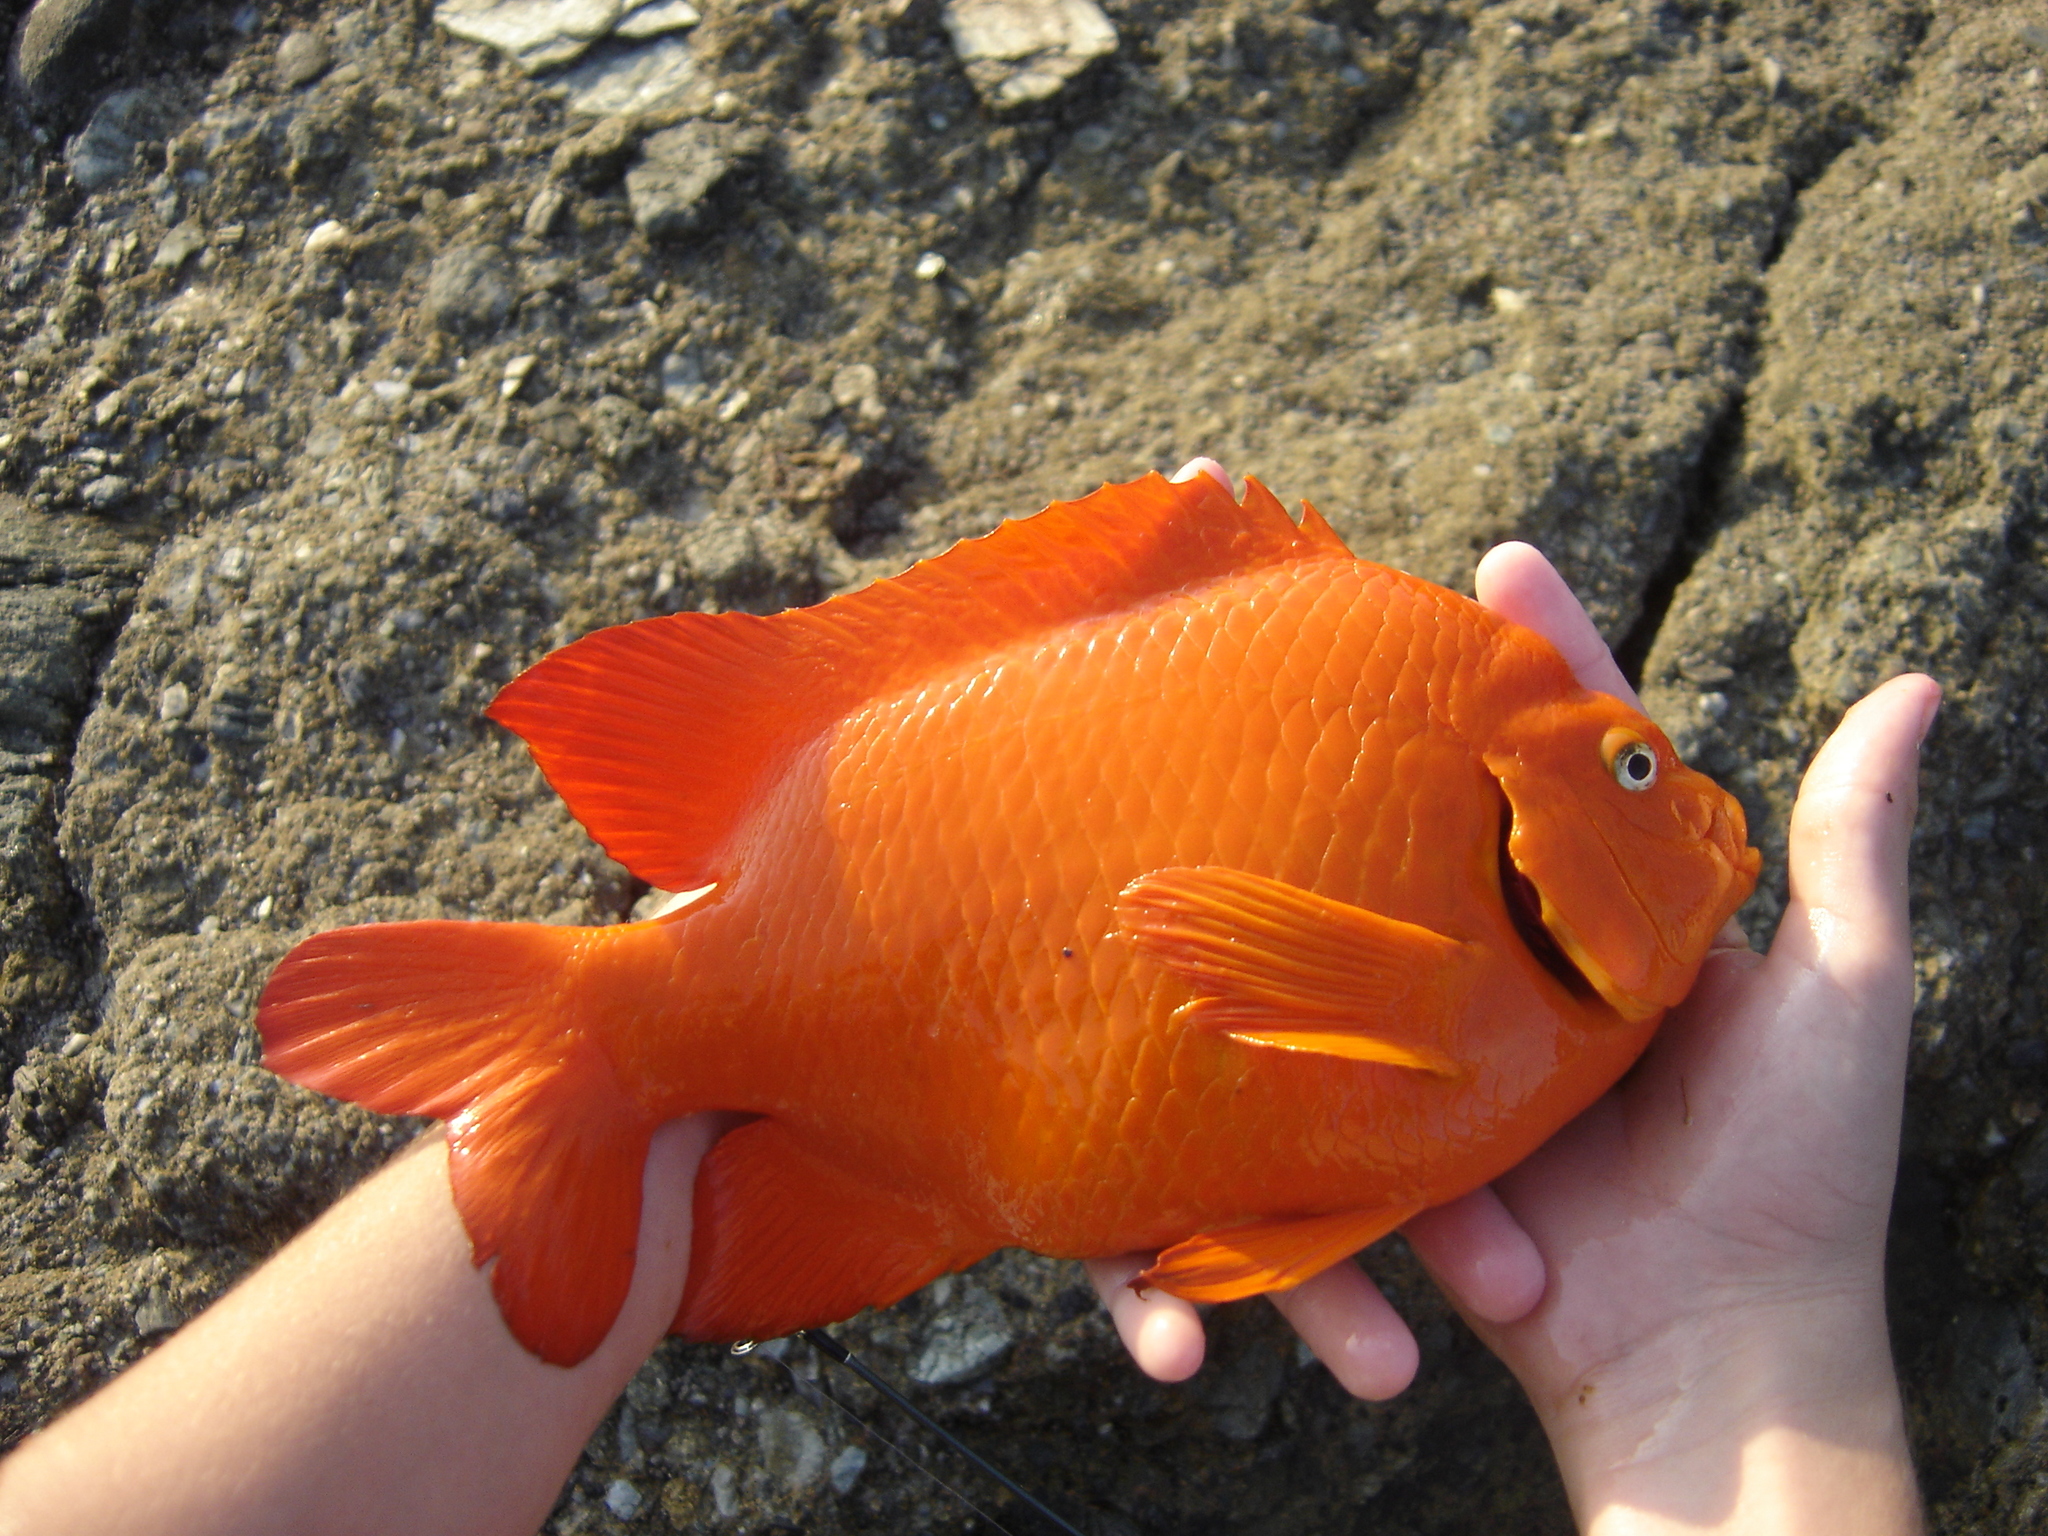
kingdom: Animalia
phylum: Chordata
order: Perciformes
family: Pomacentridae
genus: Hypsypops
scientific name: Hypsypops rubicundus
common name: Garibaldi
